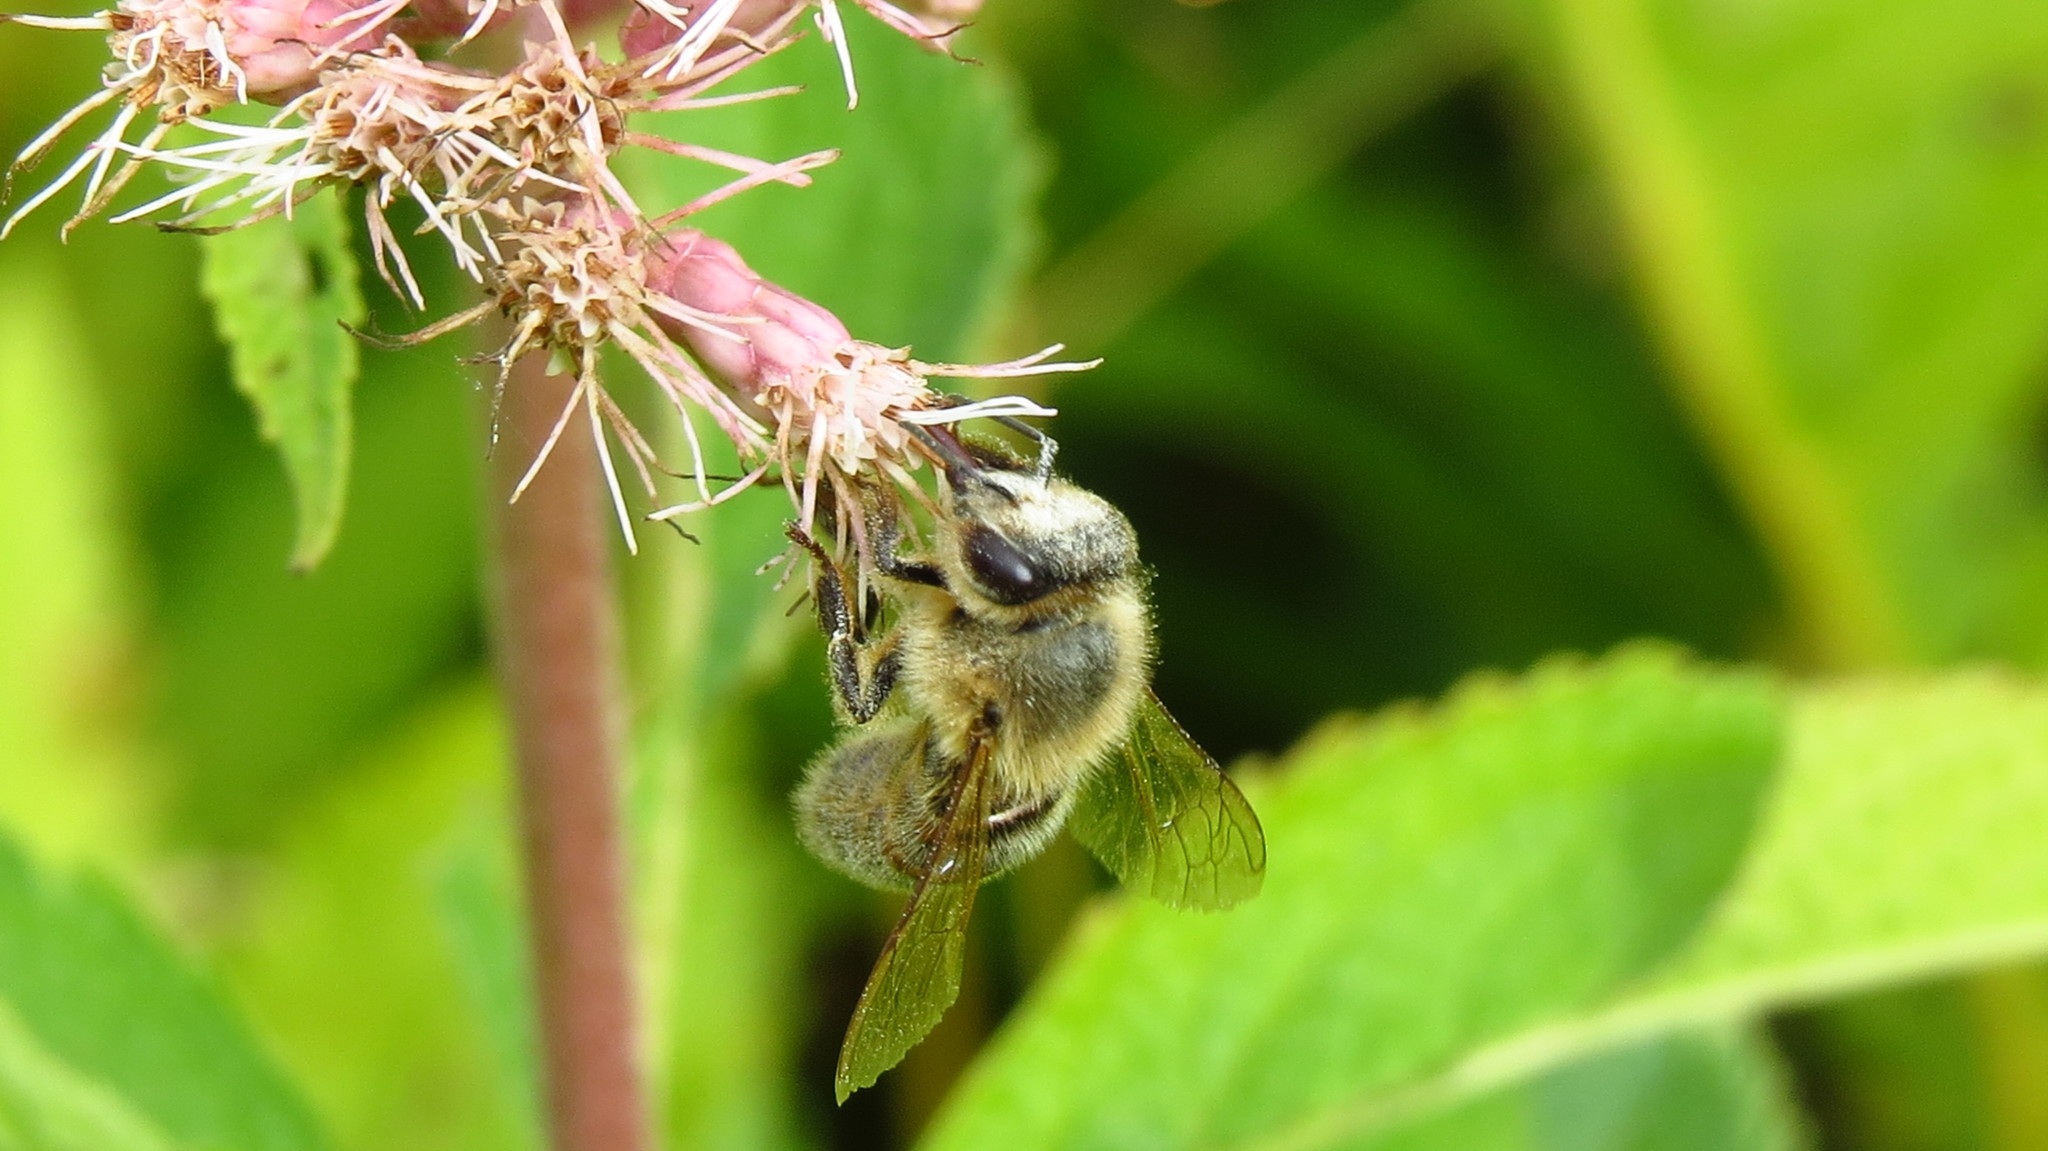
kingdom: Animalia
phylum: Arthropoda
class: Insecta
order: Hymenoptera
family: Apidae
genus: Apis
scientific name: Apis mellifera
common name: Honey bee
